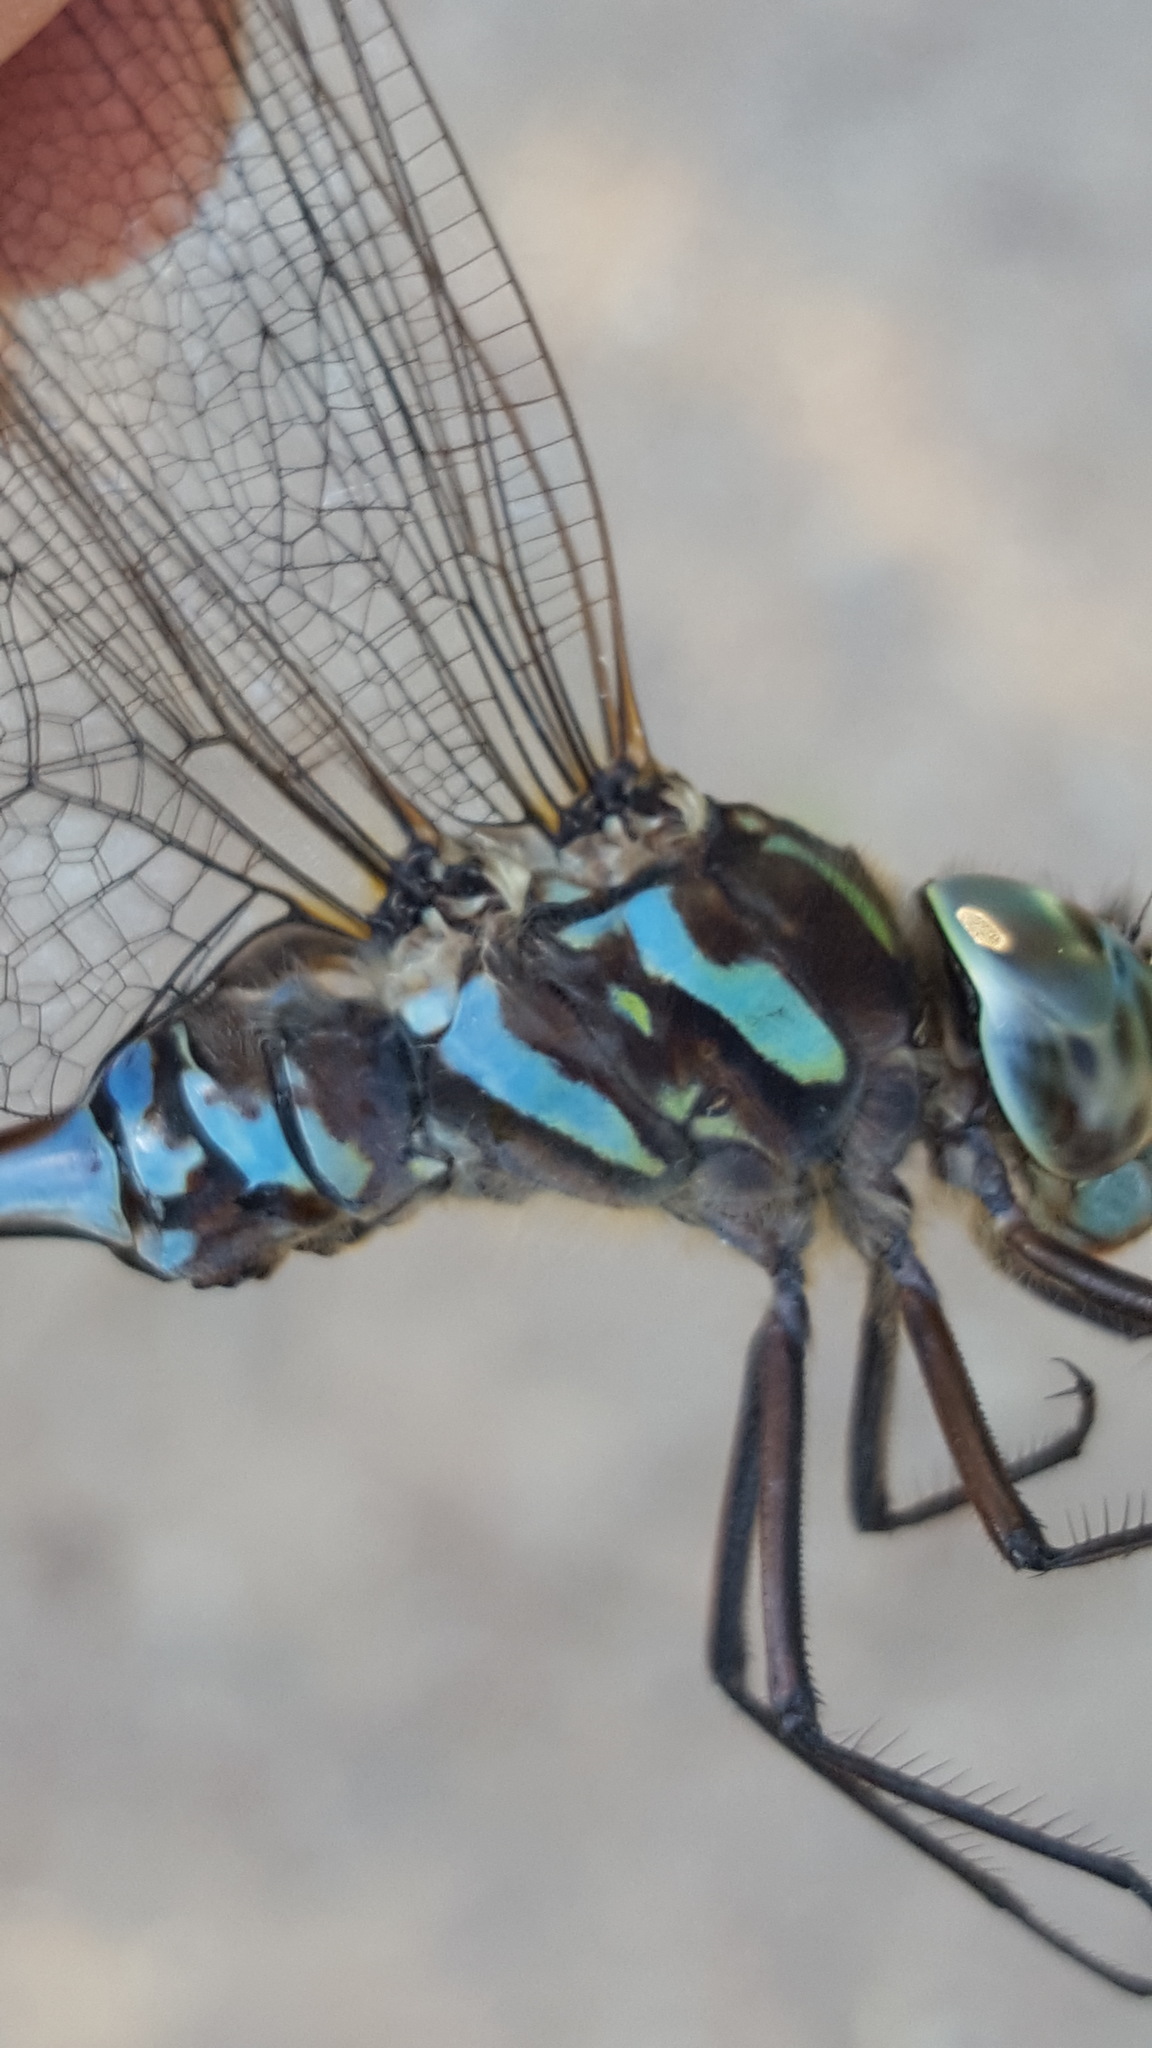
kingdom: Animalia
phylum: Arthropoda
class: Insecta
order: Odonata
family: Aeshnidae
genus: Aeshna
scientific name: Aeshna canadensis
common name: Canada darner
